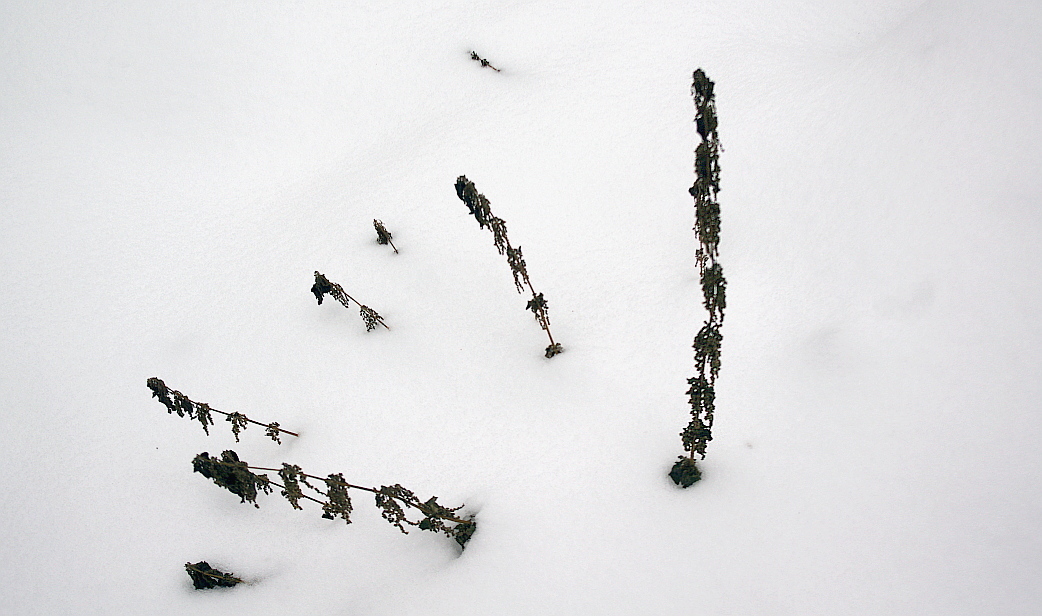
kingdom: Plantae
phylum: Tracheophyta
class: Magnoliopsida
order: Rosales
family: Urticaceae
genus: Urtica
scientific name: Urtica dioica
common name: Common nettle
